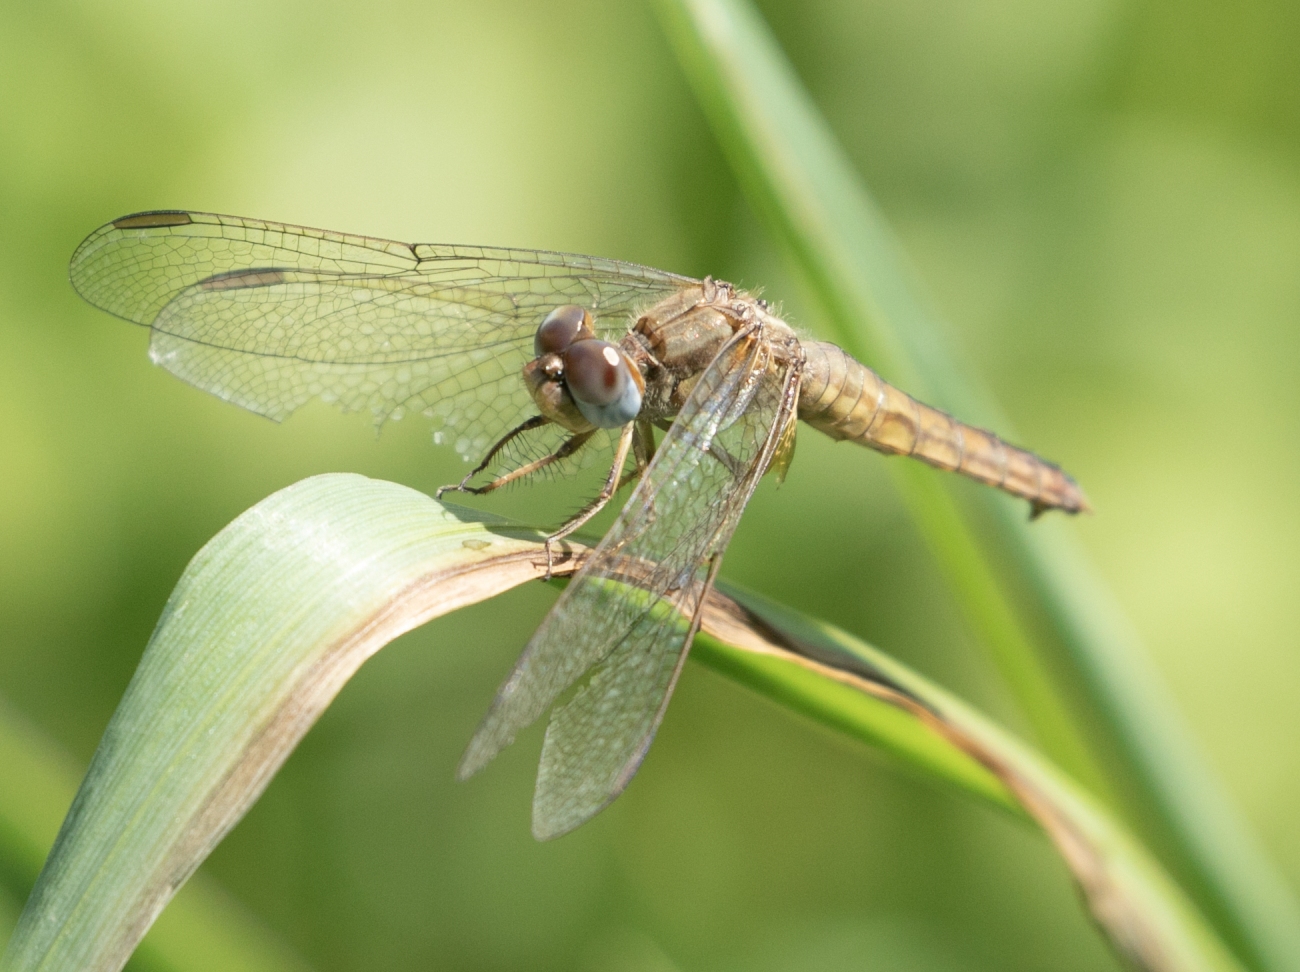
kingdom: Animalia
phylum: Arthropoda
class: Insecta
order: Odonata
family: Libellulidae
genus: Crocothemis
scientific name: Crocothemis erythraea
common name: Scarlet dragonfly
